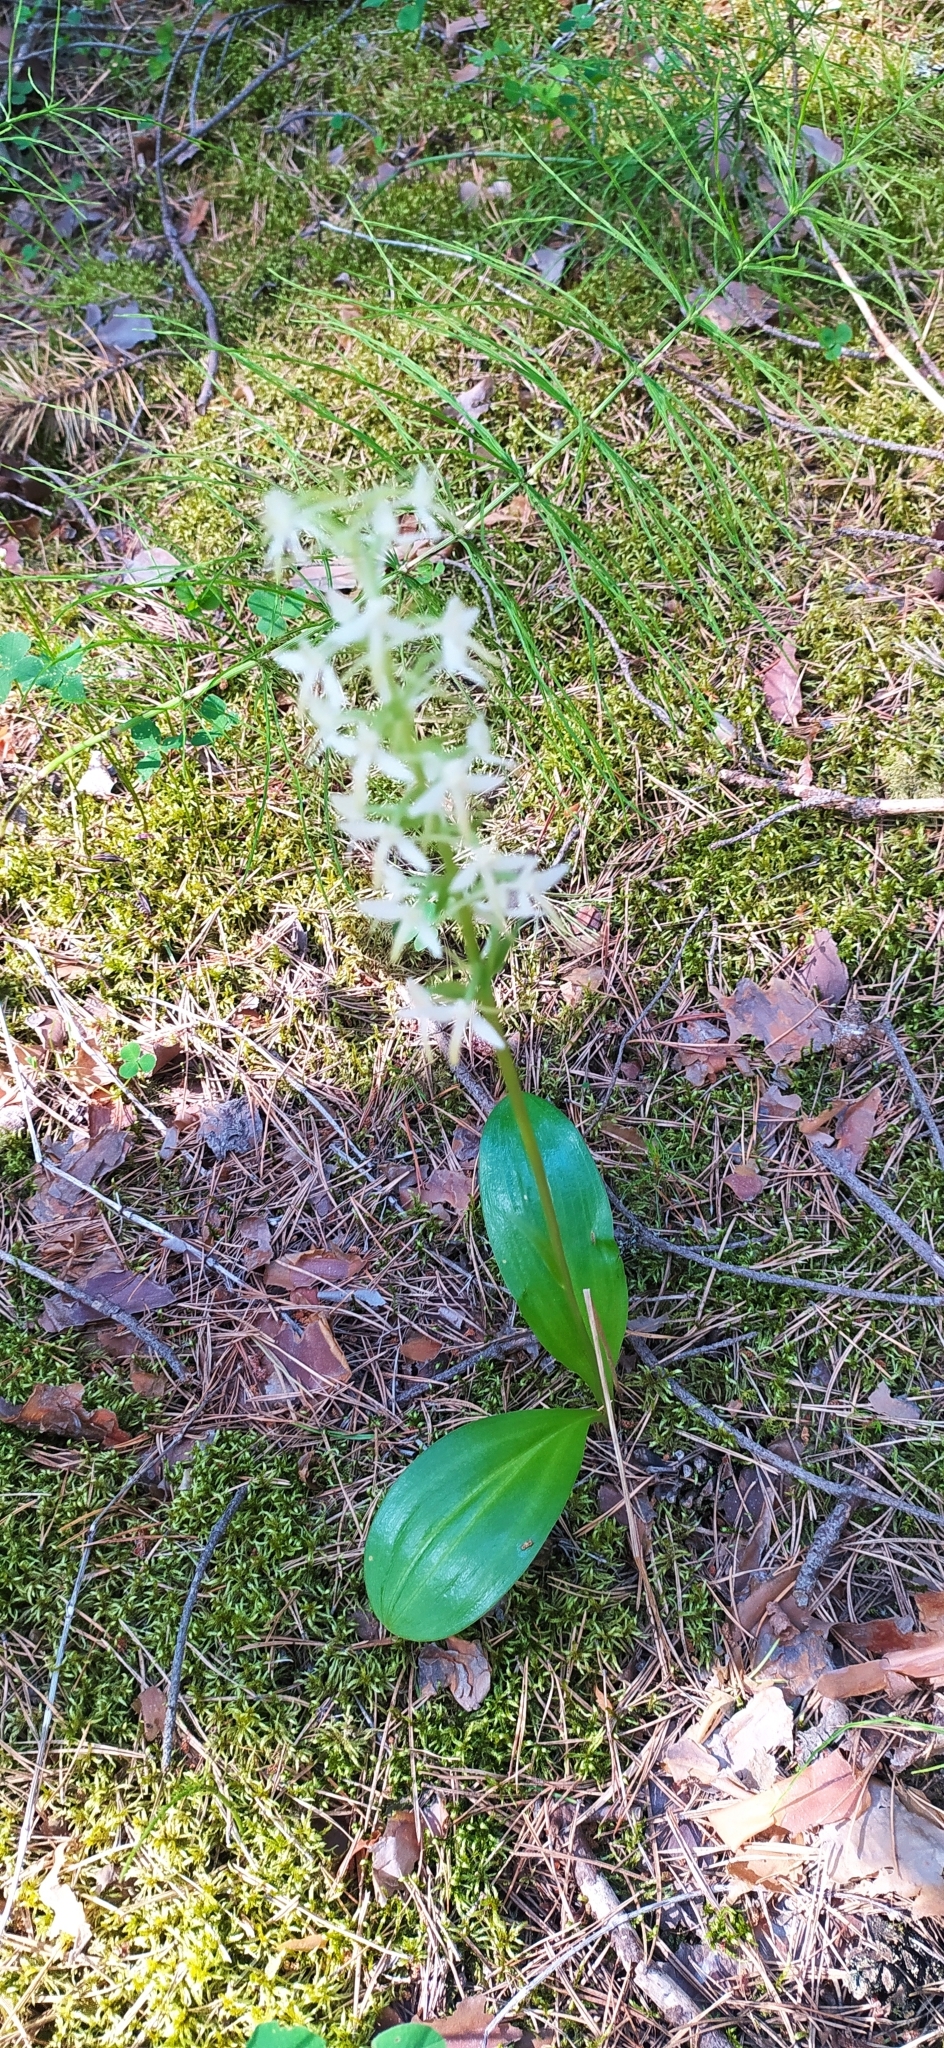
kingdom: Plantae
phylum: Tracheophyta
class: Liliopsida
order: Asparagales
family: Orchidaceae
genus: Platanthera
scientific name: Platanthera bifolia
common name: Lesser butterfly-orchid
